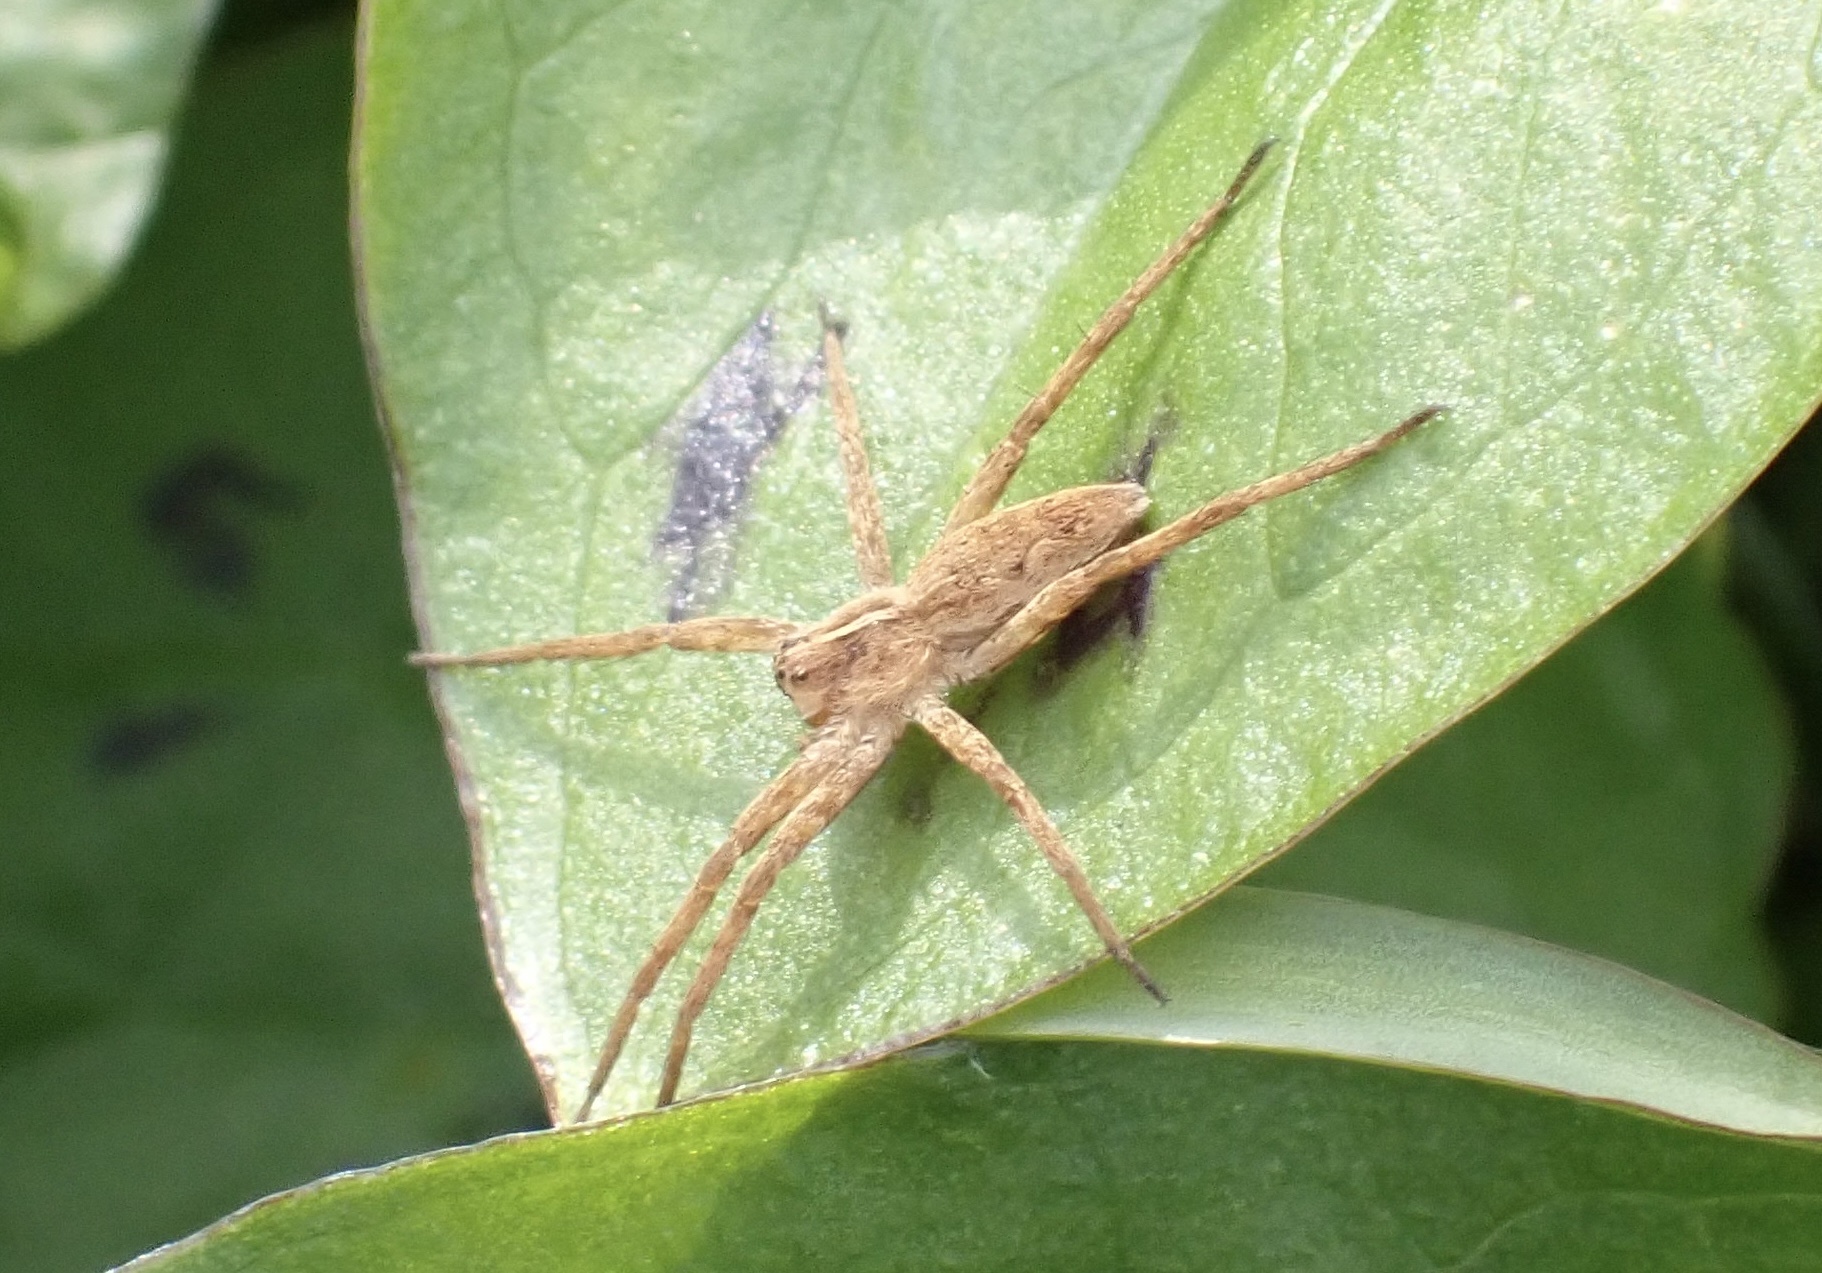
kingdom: Animalia
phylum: Arthropoda
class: Arachnida
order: Araneae
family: Pisauridae
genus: Pisaura
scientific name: Pisaura mirabilis
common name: Tent spider
